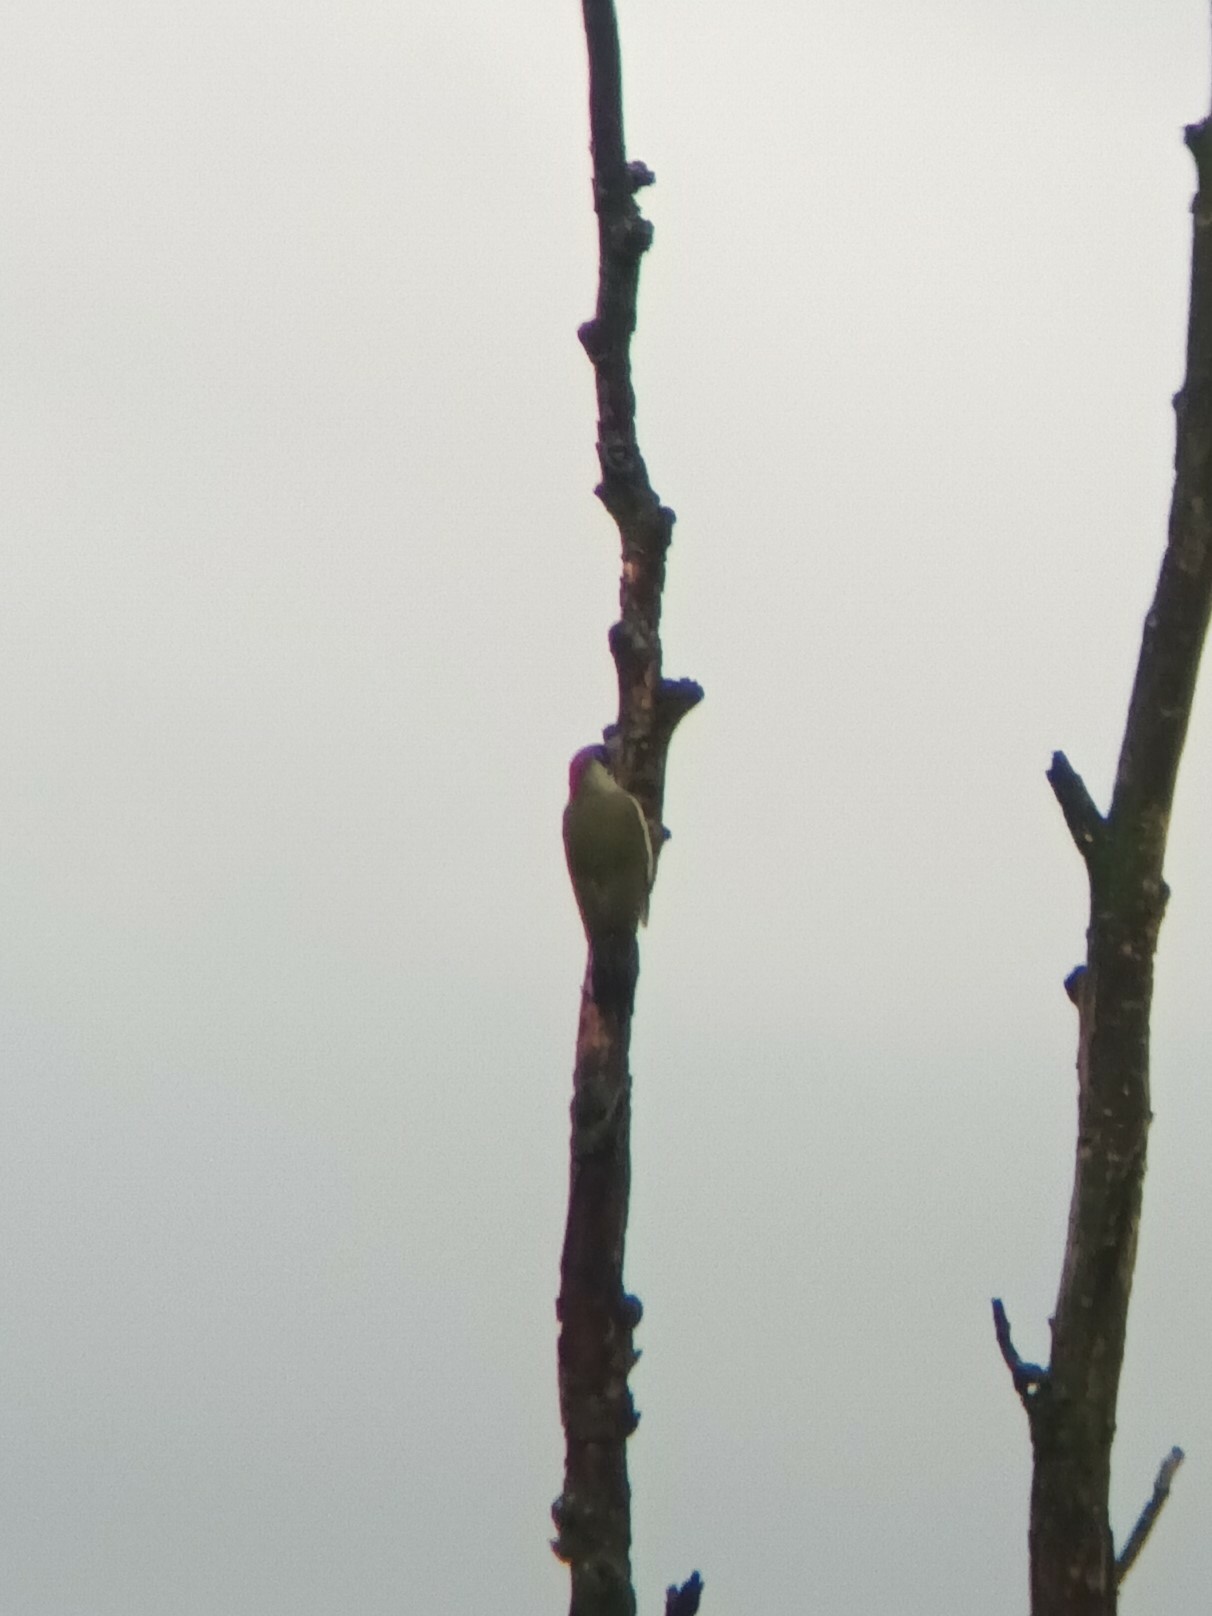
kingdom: Animalia
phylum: Chordata
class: Aves
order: Piciformes
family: Picidae
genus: Picus
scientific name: Picus viridis
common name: European green woodpecker
